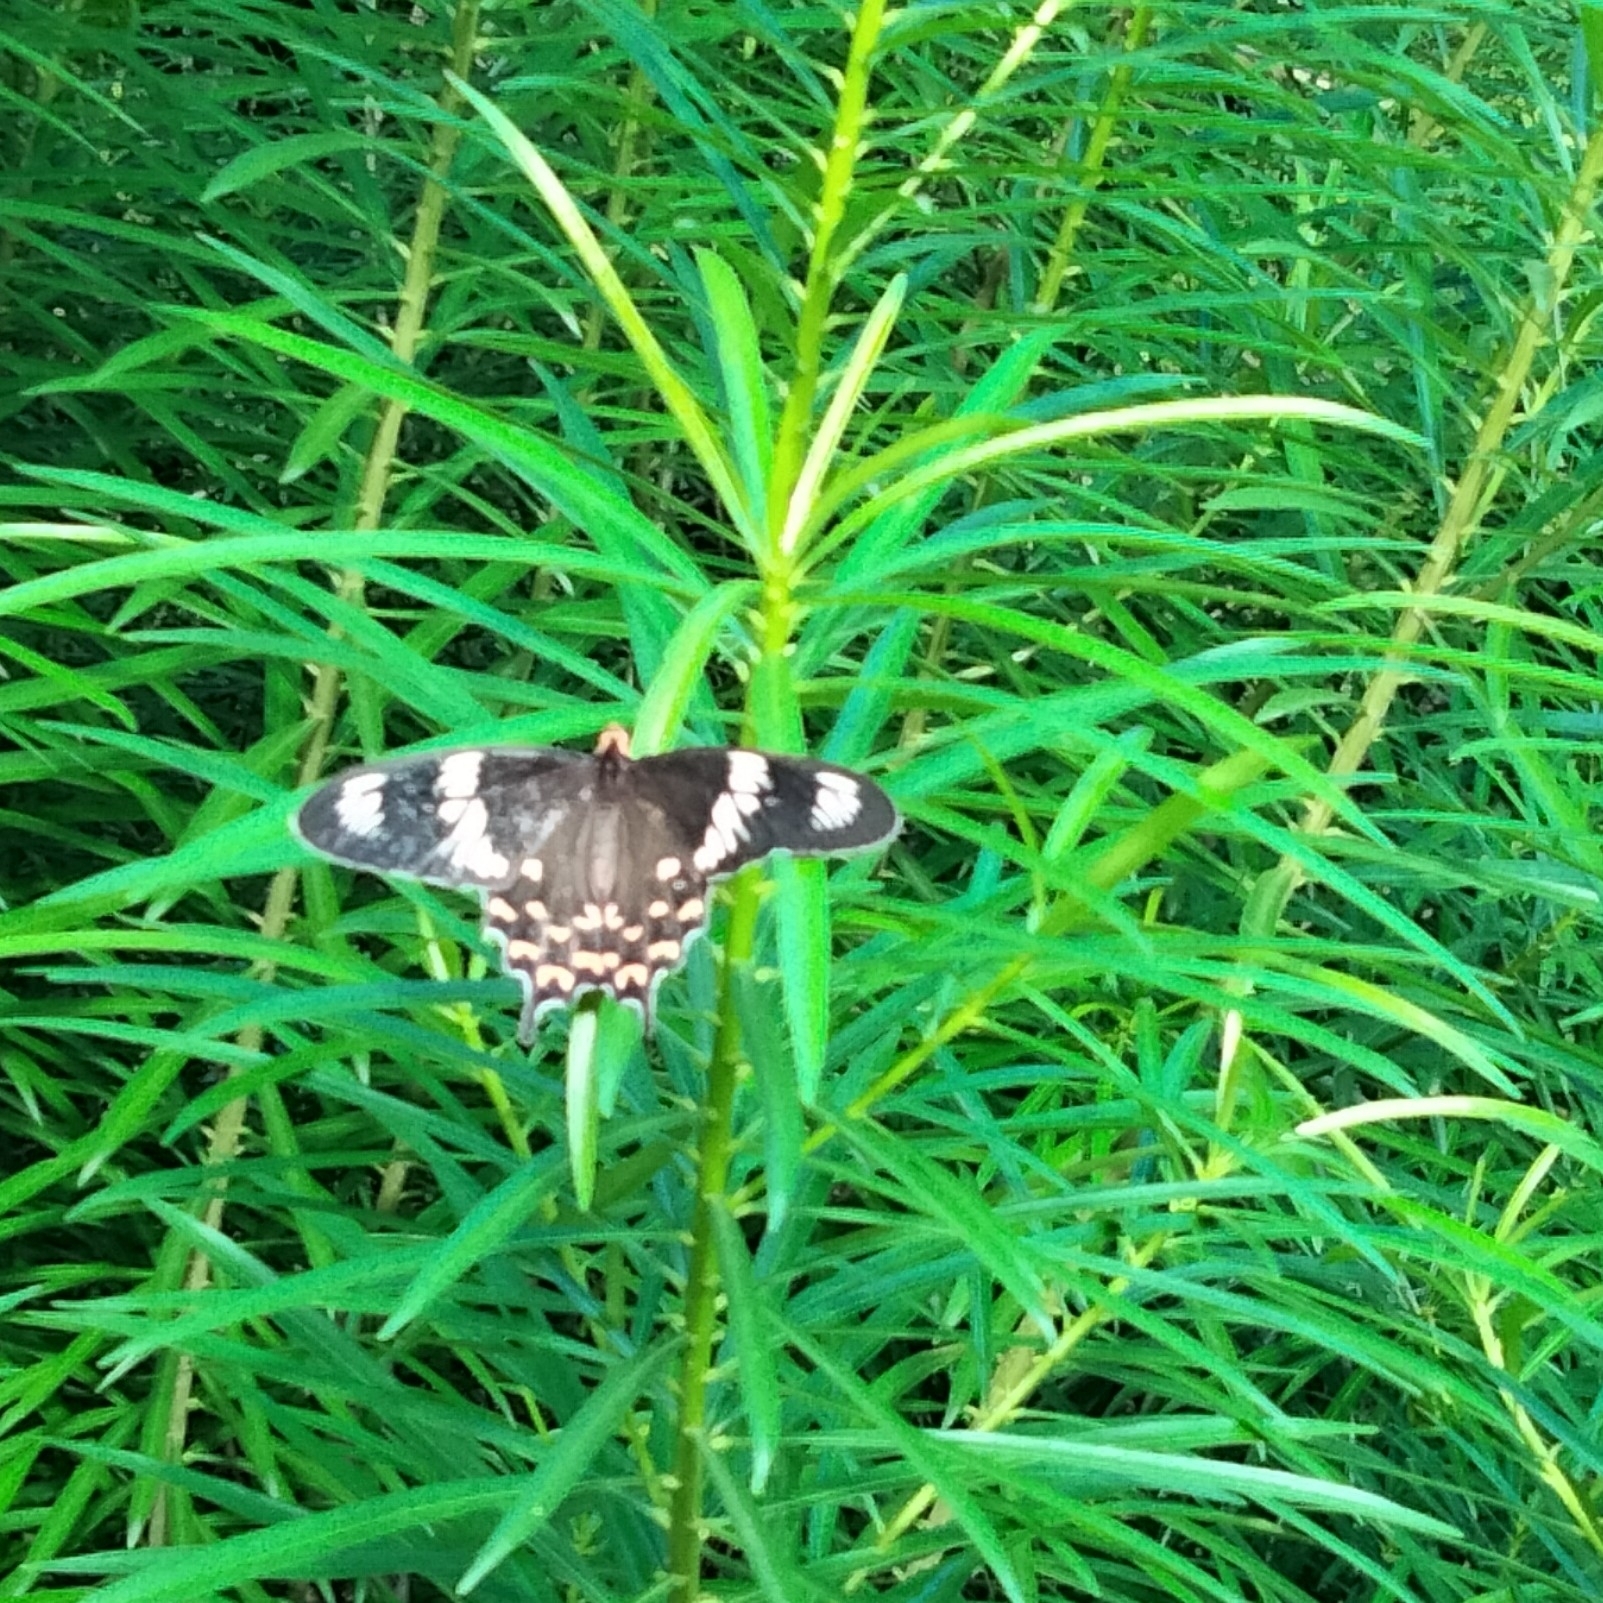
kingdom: Animalia
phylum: Arthropoda
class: Insecta
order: Lepidoptera
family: Papilionidae
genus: Pachliopta
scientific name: Pachliopta hector
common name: Crimson rose
